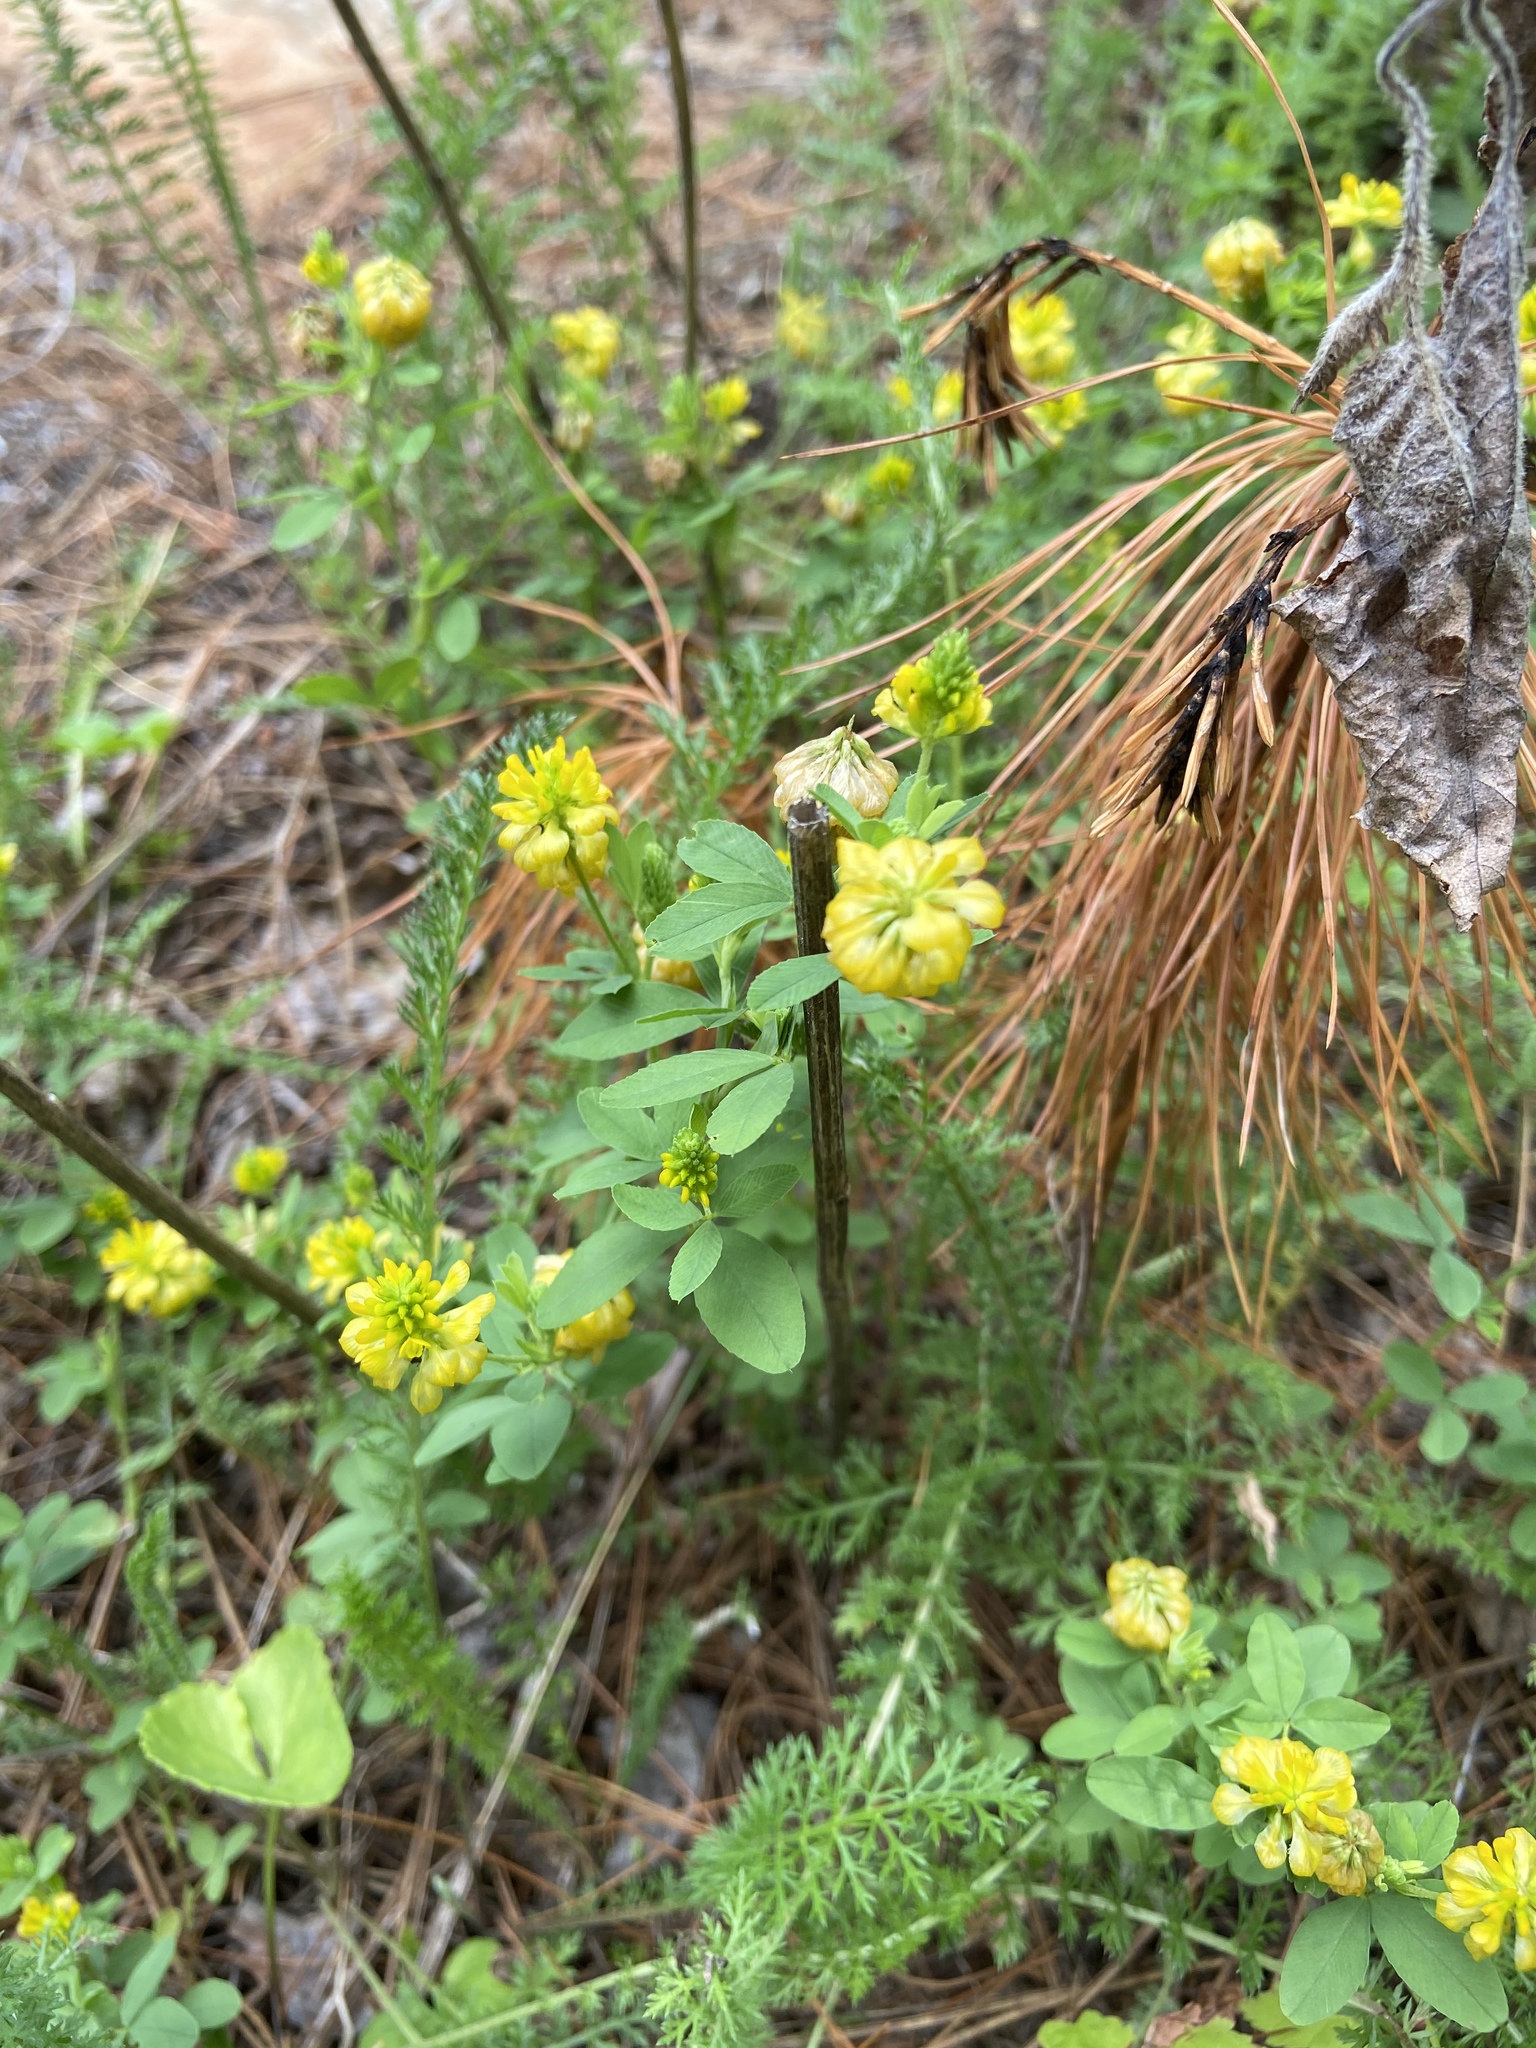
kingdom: Plantae
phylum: Tracheophyta
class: Magnoliopsida
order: Fabales
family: Fabaceae
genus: Trifolium
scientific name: Trifolium aureum
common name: Golden clover
